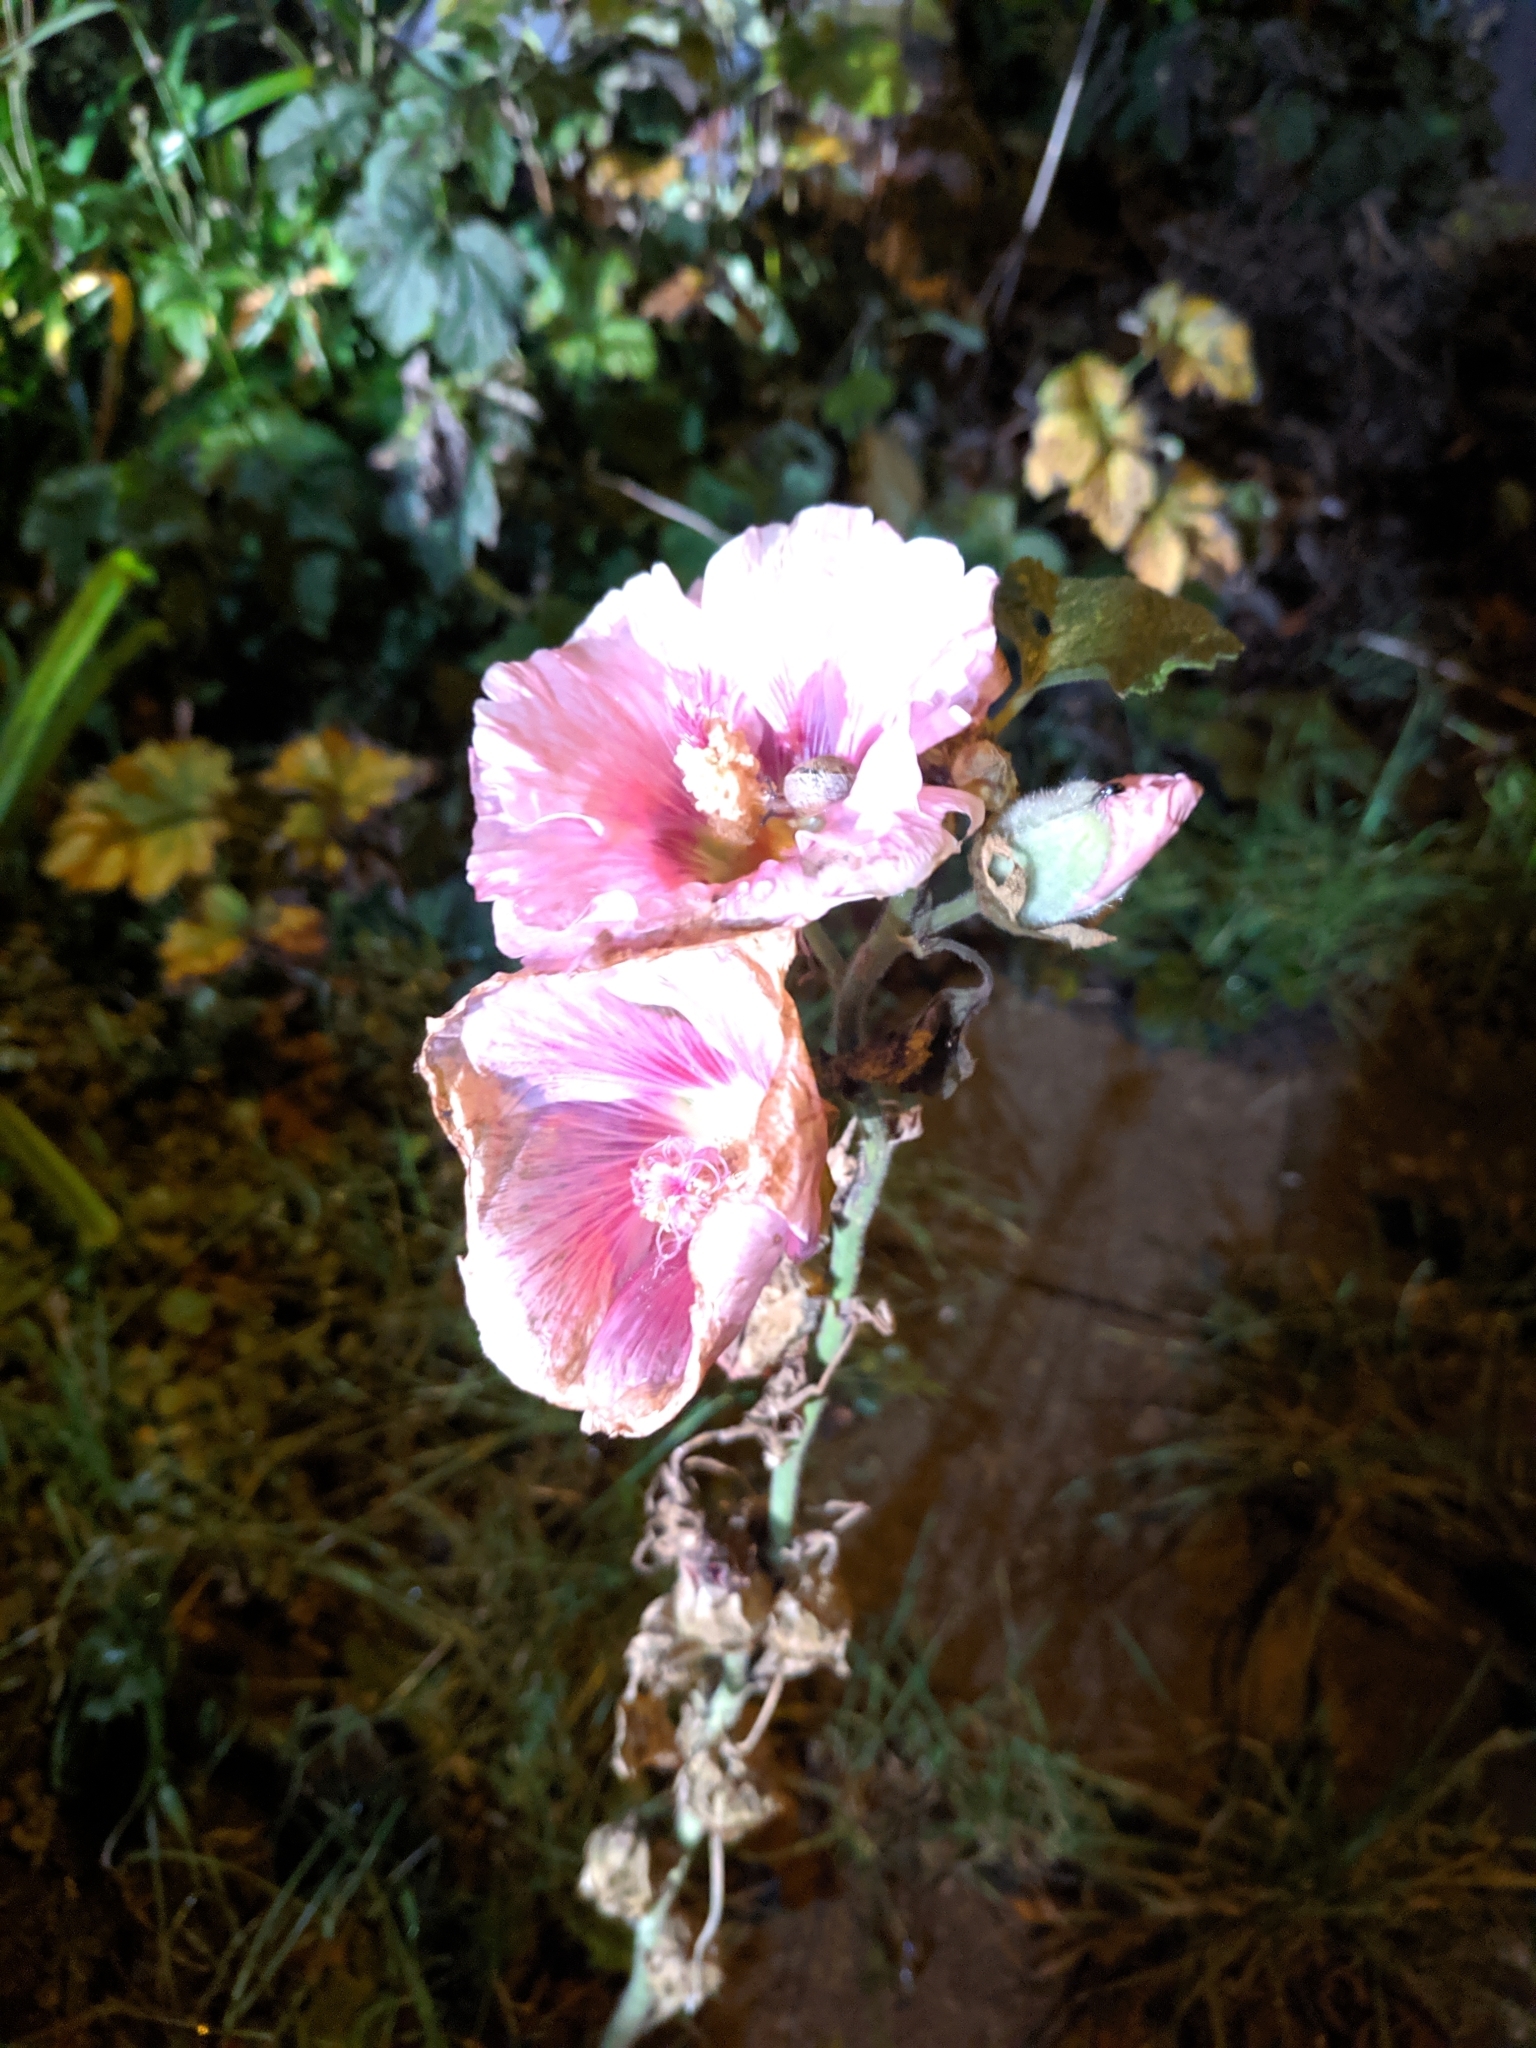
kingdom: Plantae
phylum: Tracheophyta
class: Magnoliopsida
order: Malvales
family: Malvaceae
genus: Alcea
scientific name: Alcea rosea
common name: Hollyhock
